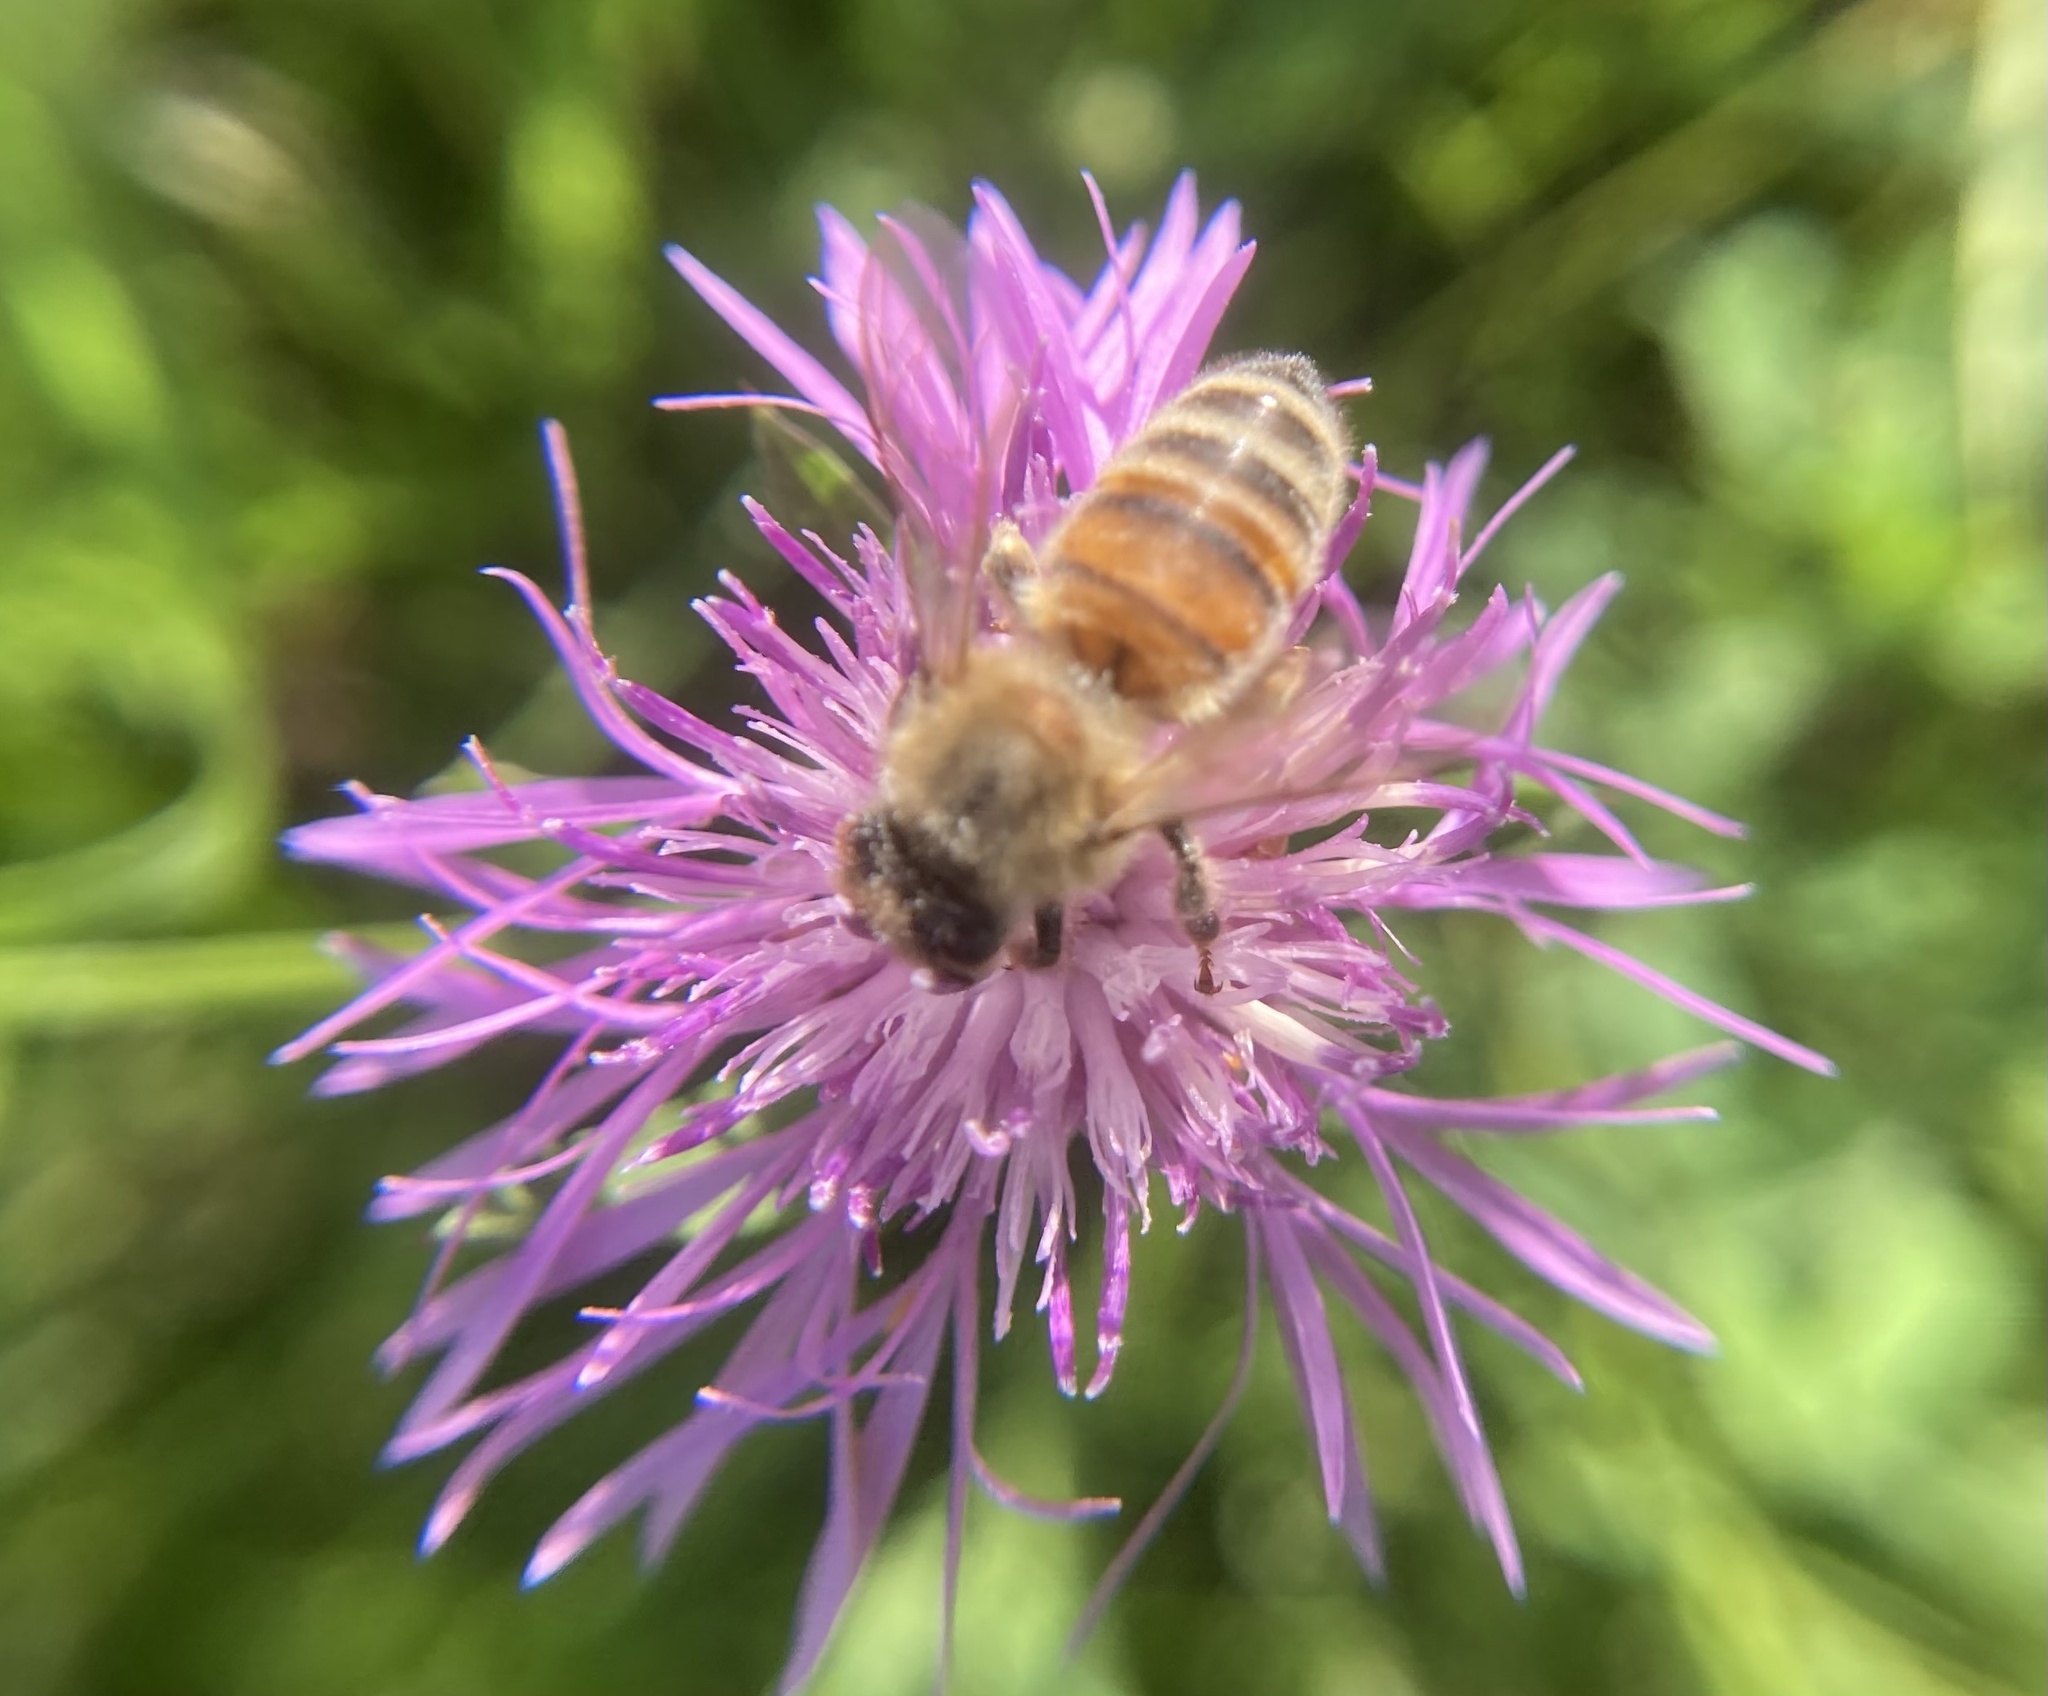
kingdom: Animalia
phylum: Arthropoda
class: Insecta
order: Hymenoptera
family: Apidae
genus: Apis
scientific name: Apis mellifera
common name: Honey bee
